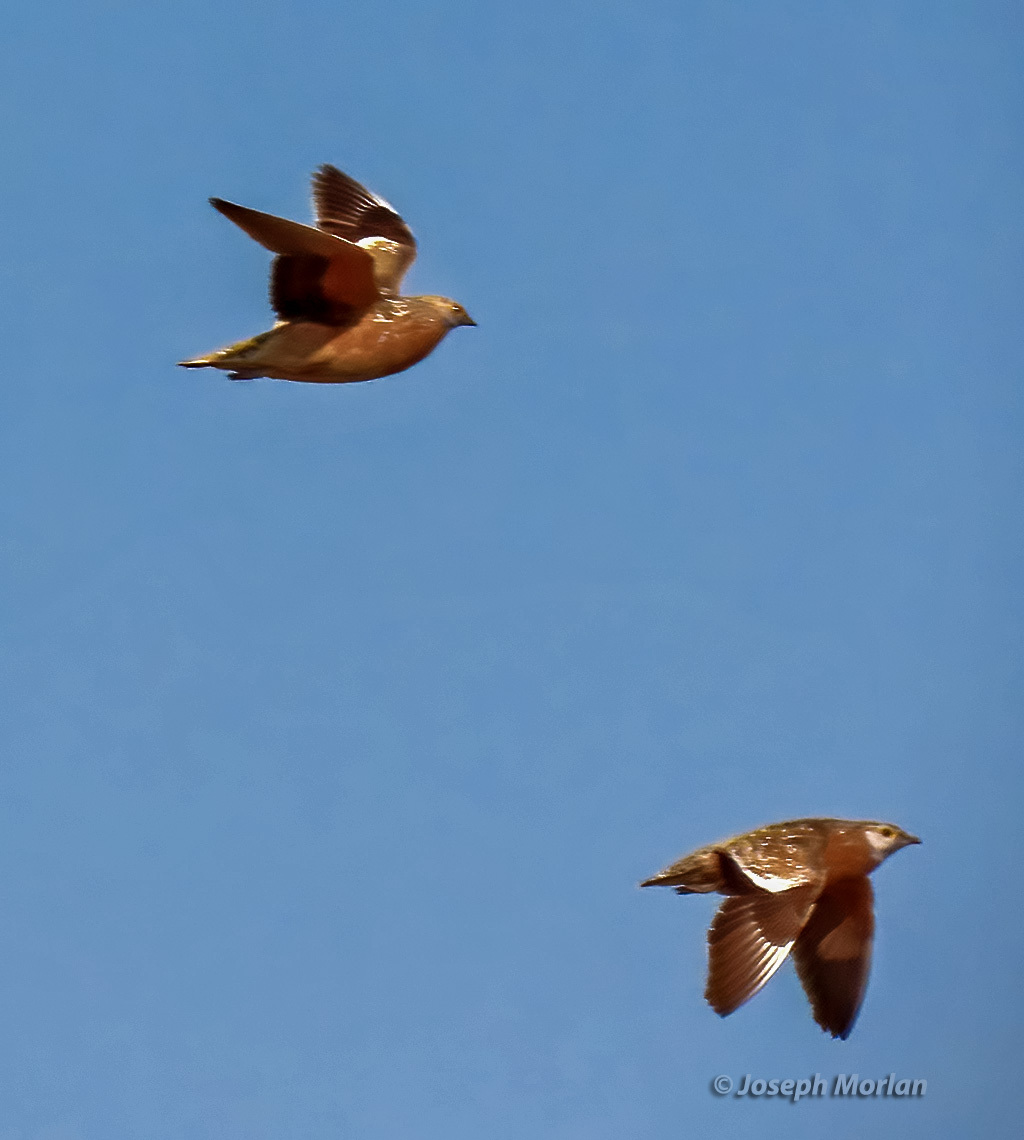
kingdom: Animalia
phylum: Chordata
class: Aves
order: Pteroclidiformes
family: Pteroclididae
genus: Pterocles
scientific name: Pterocles burchelli
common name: Burchell's sandgrouse
